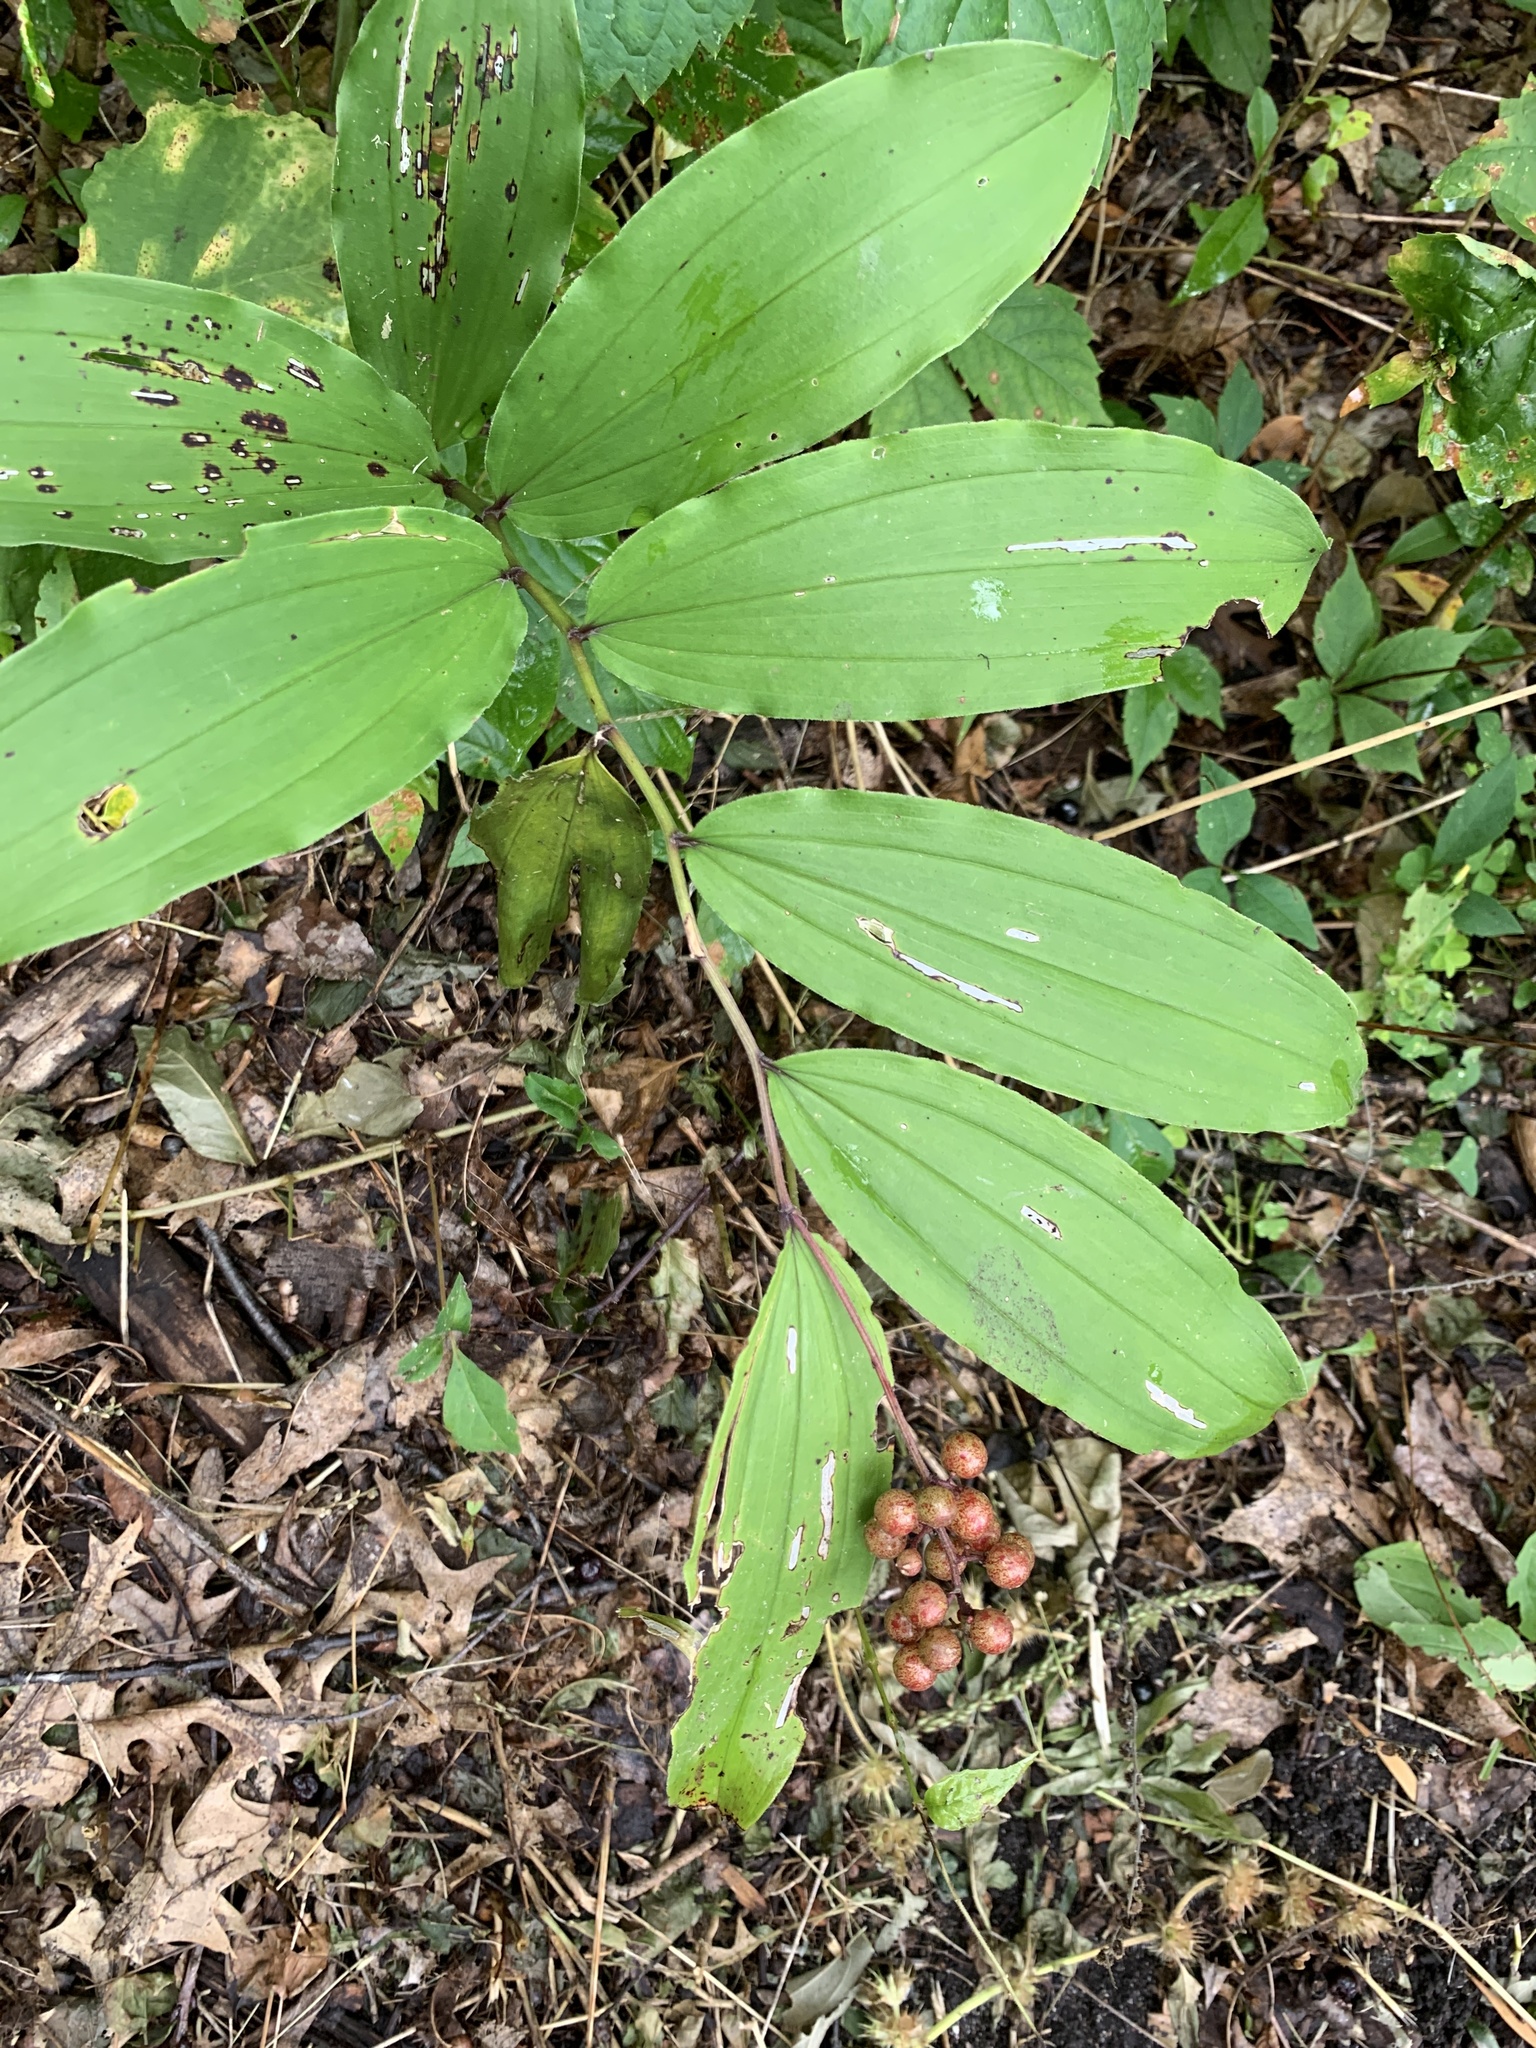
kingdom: Plantae
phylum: Tracheophyta
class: Liliopsida
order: Asparagales
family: Asparagaceae
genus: Maianthemum
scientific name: Maianthemum racemosum
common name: False spikenard
